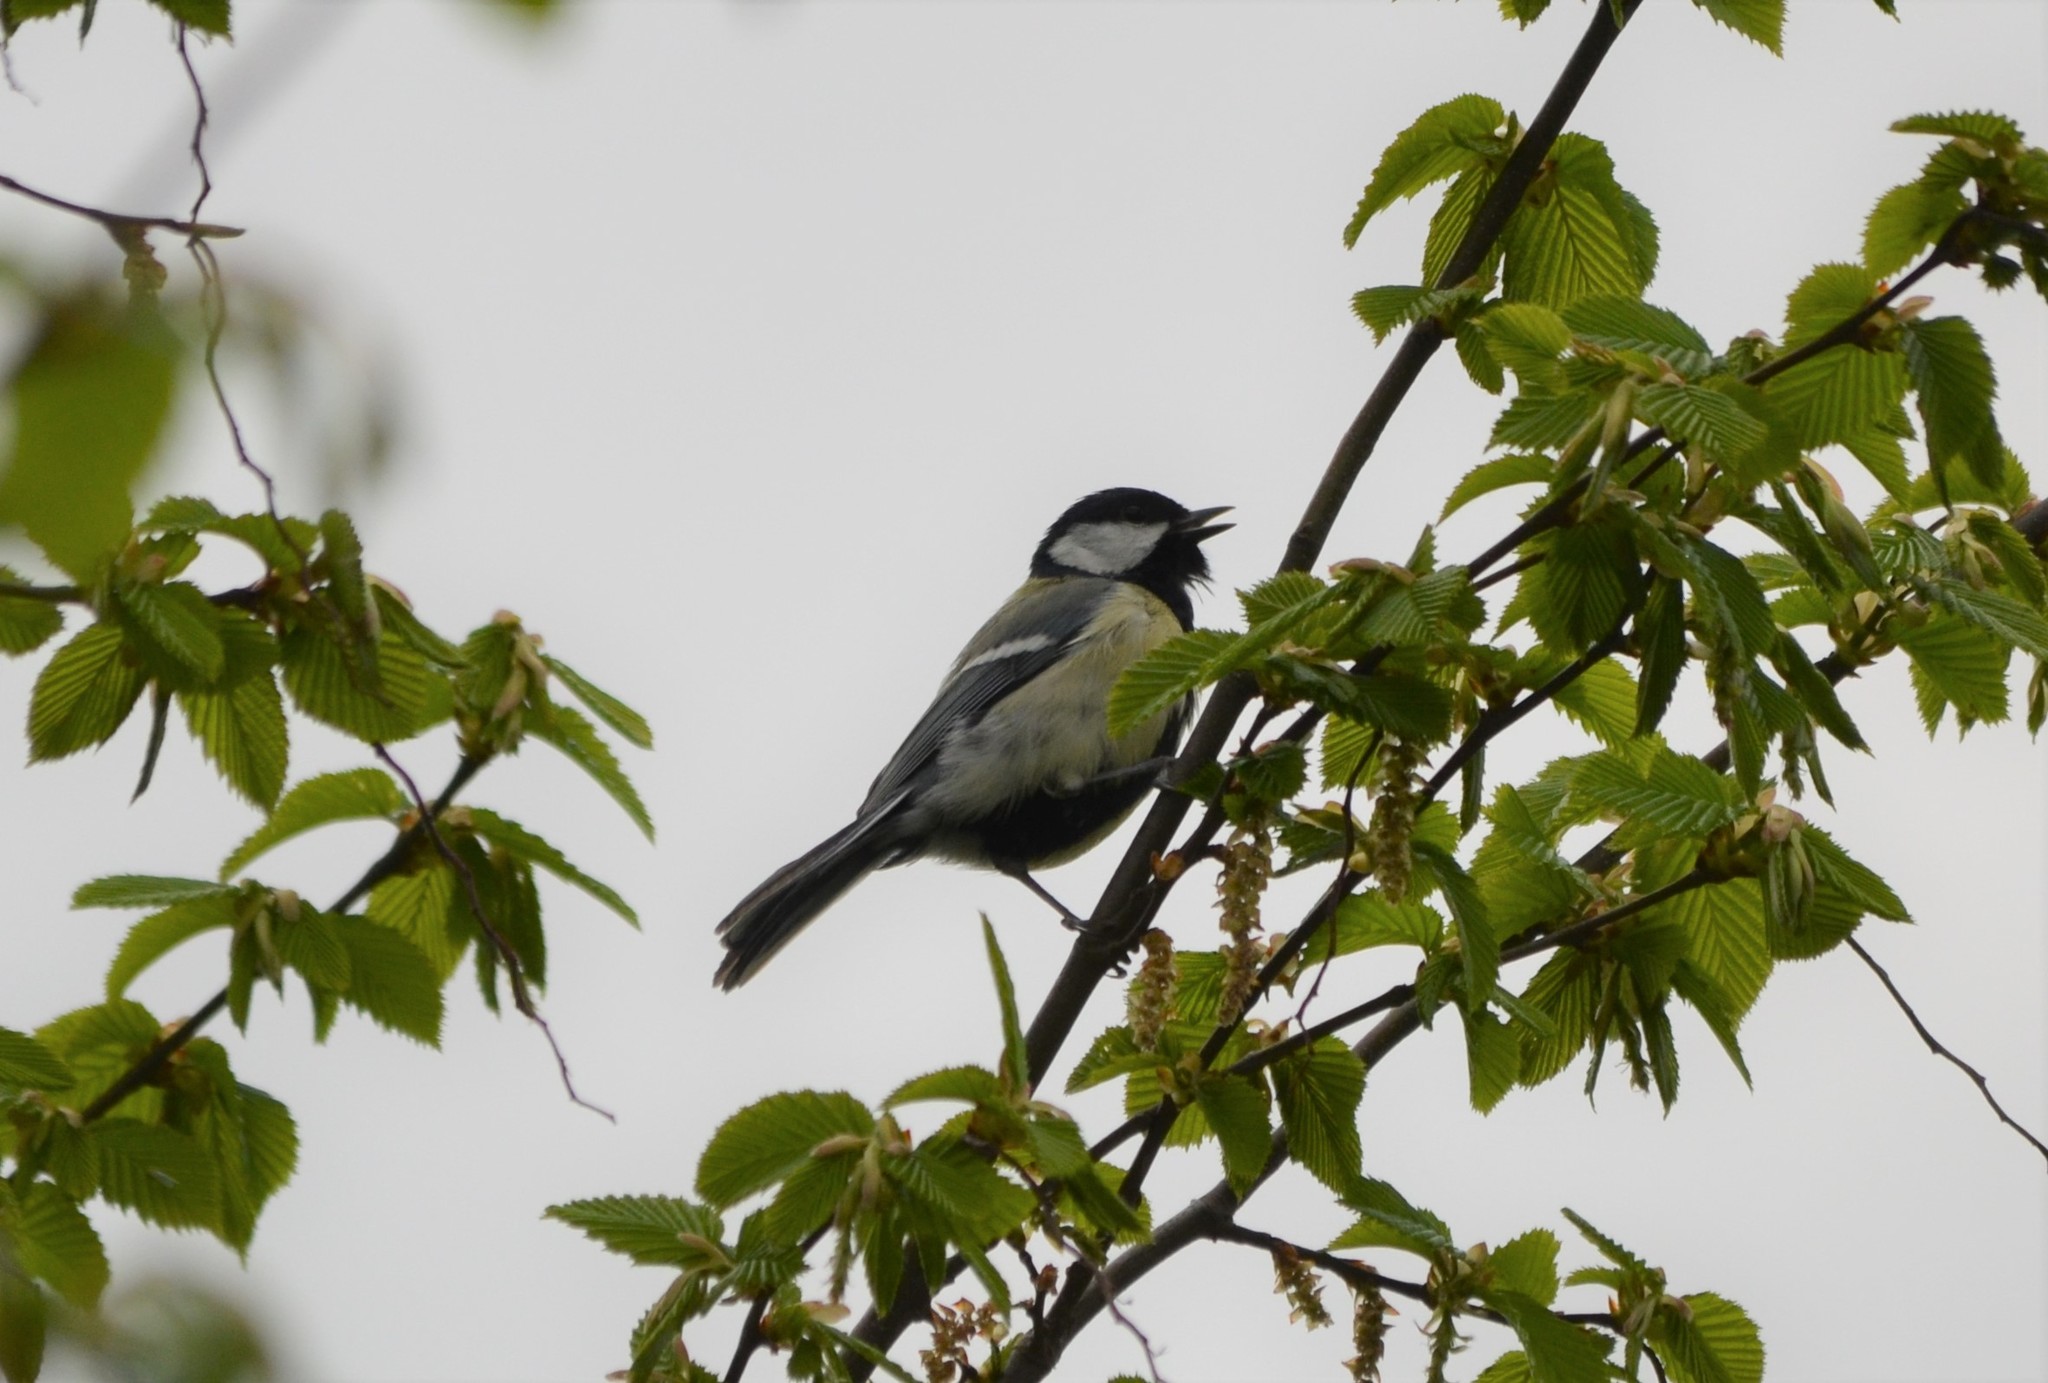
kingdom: Animalia
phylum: Chordata
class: Aves
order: Passeriformes
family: Paridae
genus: Parus
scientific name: Parus major
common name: Great tit
